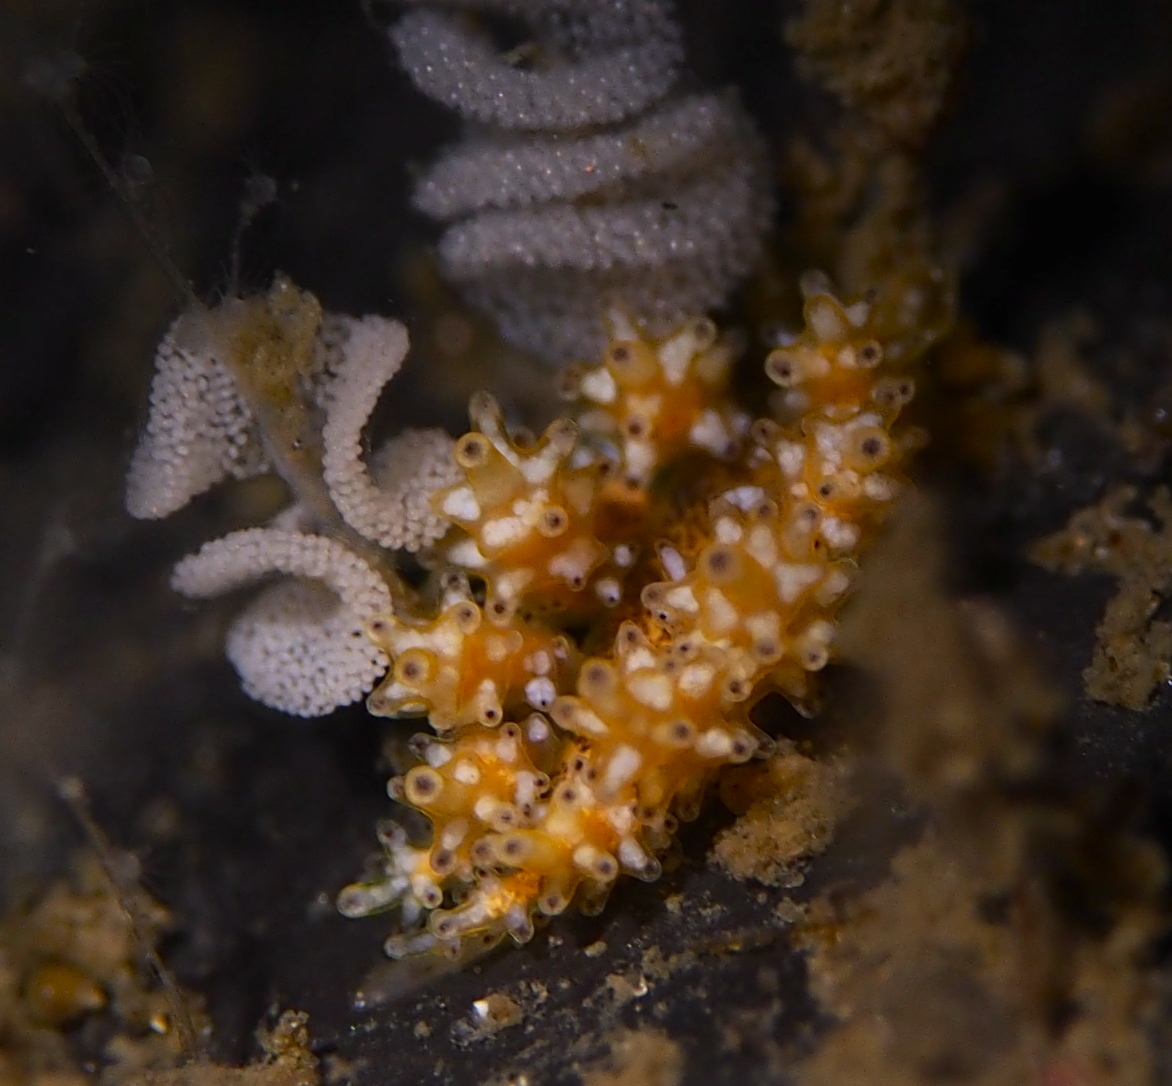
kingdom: Animalia
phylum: Mollusca
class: Gastropoda
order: Nudibranchia
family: Dotidae
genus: Doto
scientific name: Doto maculata
